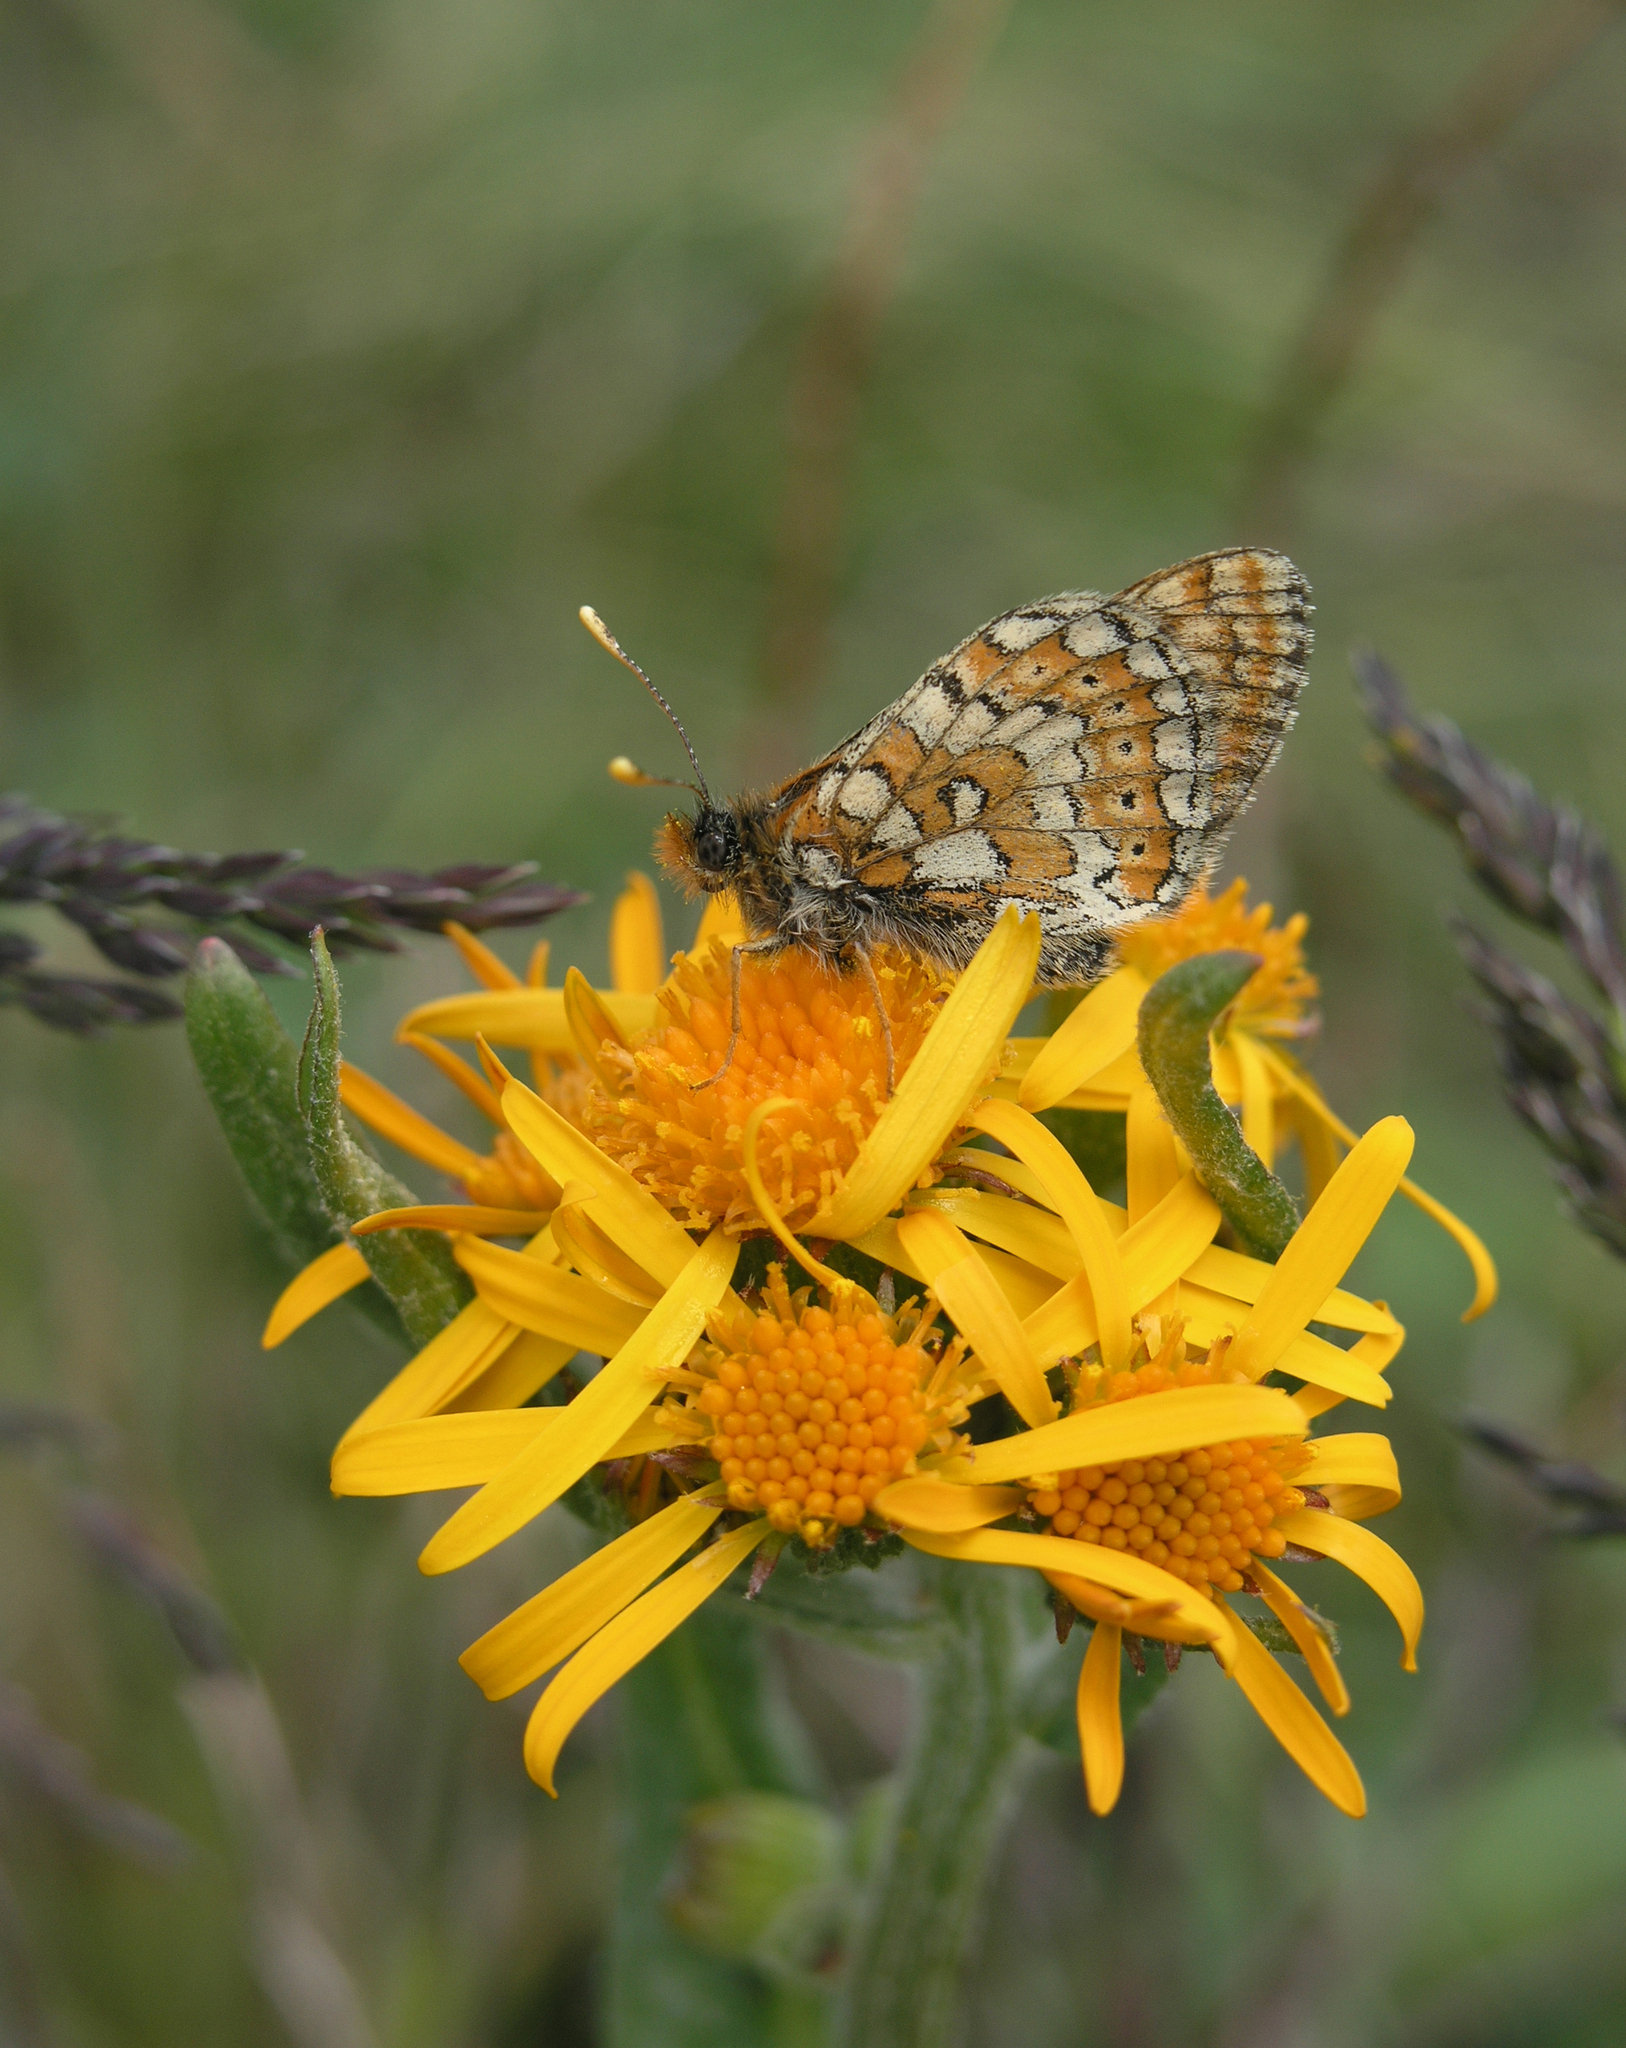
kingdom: Animalia
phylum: Arthropoda
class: Insecta
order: Lepidoptera
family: Nymphalidae
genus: Euphydryas
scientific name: Euphydryas aurinia
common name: Marsh fritillary
